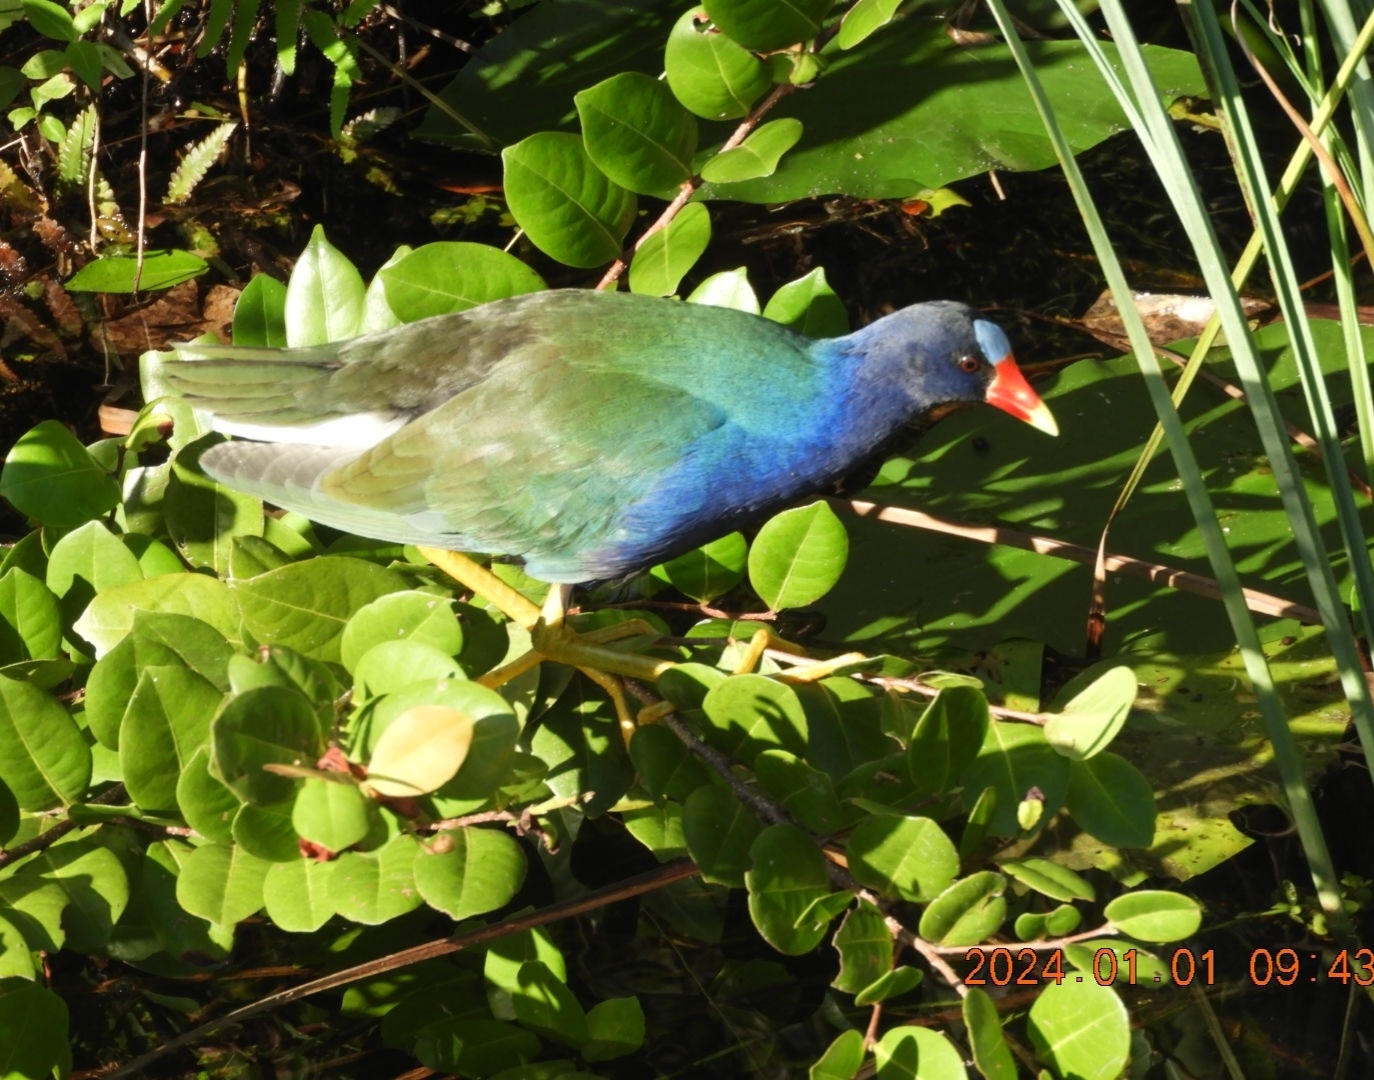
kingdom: Animalia
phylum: Chordata
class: Aves
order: Gruiformes
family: Rallidae
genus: Porphyrio
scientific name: Porphyrio martinica
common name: Purple gallinule
